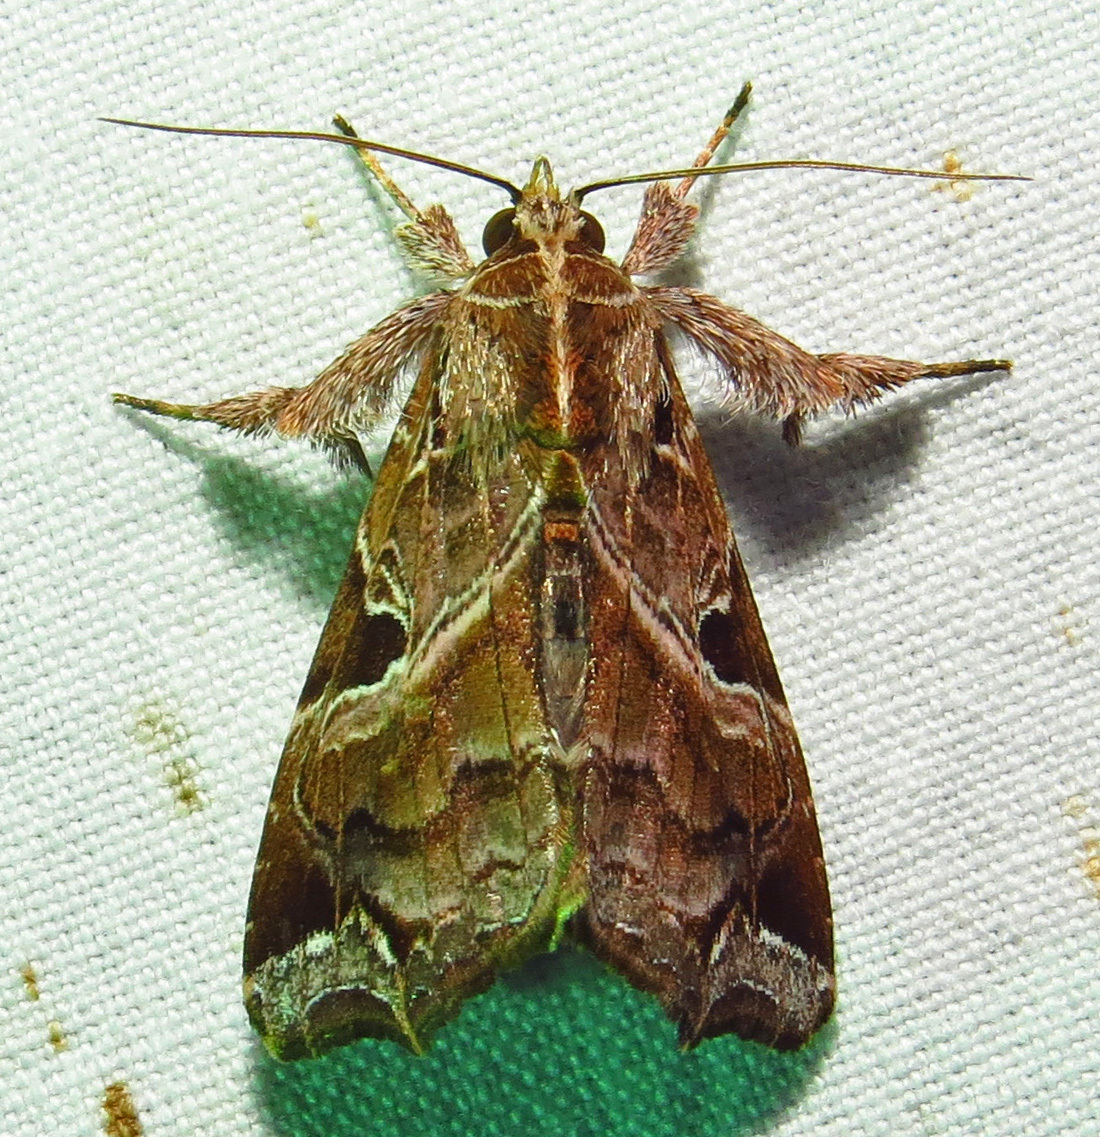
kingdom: Animalia
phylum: Arthropoda
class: Insecta
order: Lepidoptera
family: Noctuidae
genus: Callopistria
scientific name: Callopistria floridensis
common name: Florida fern moth
